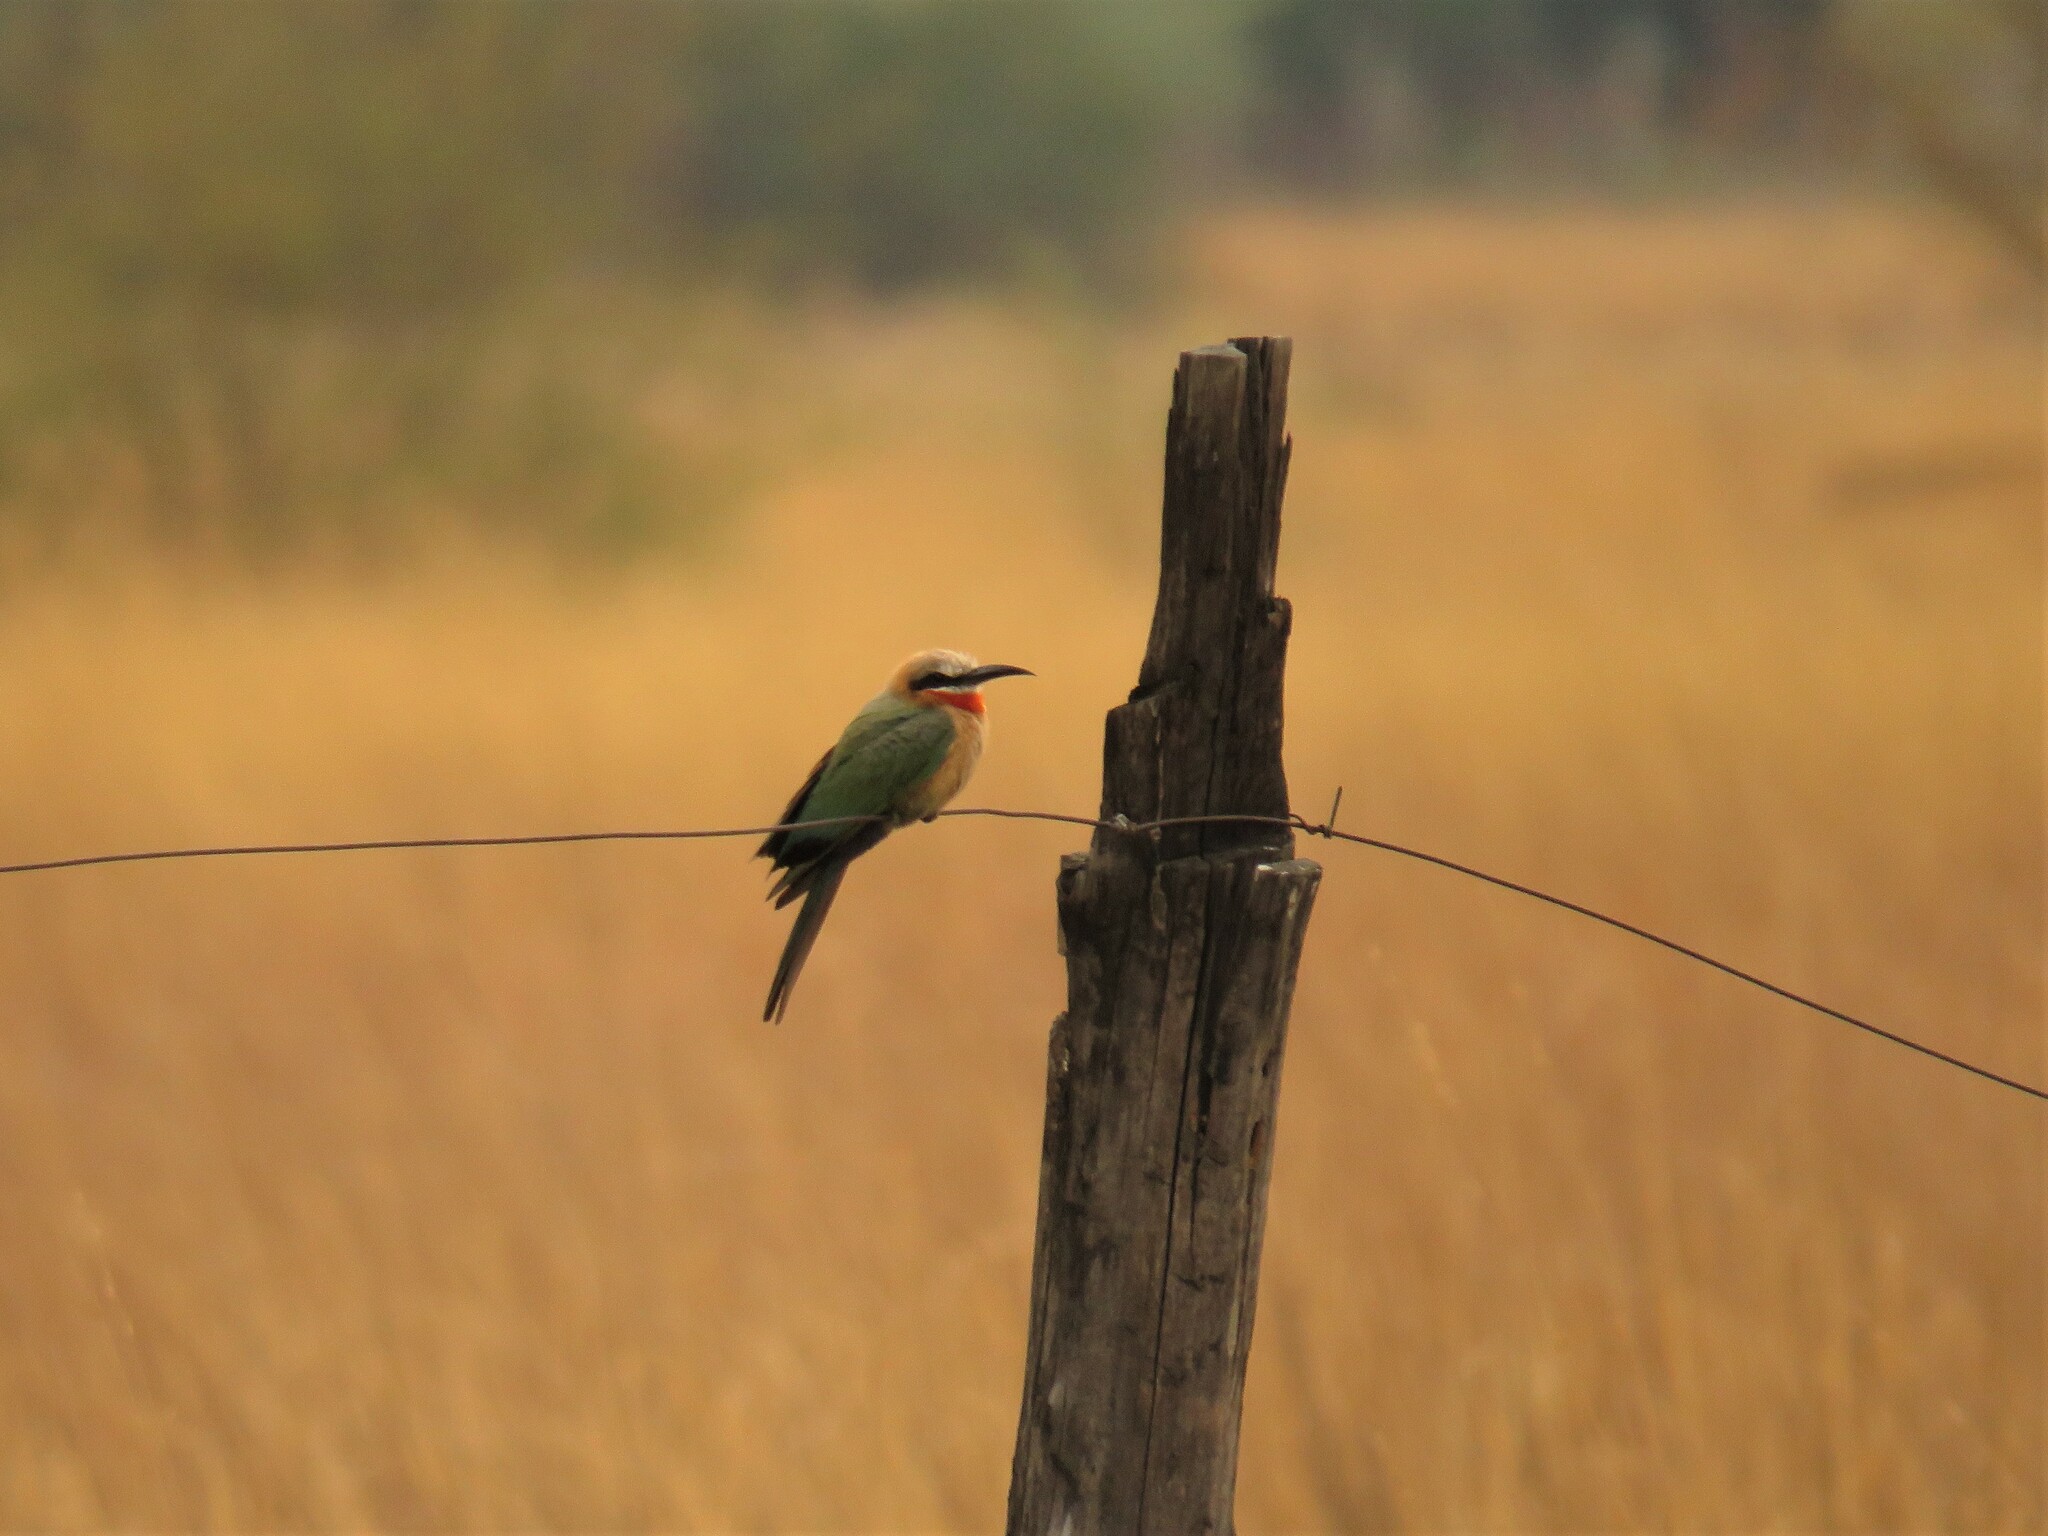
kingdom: Animalia
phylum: Chordata
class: Aves
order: Coraciiformes
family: Meropidae
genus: Merops
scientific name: Merops bullockoides
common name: White-fronted bee-eater
